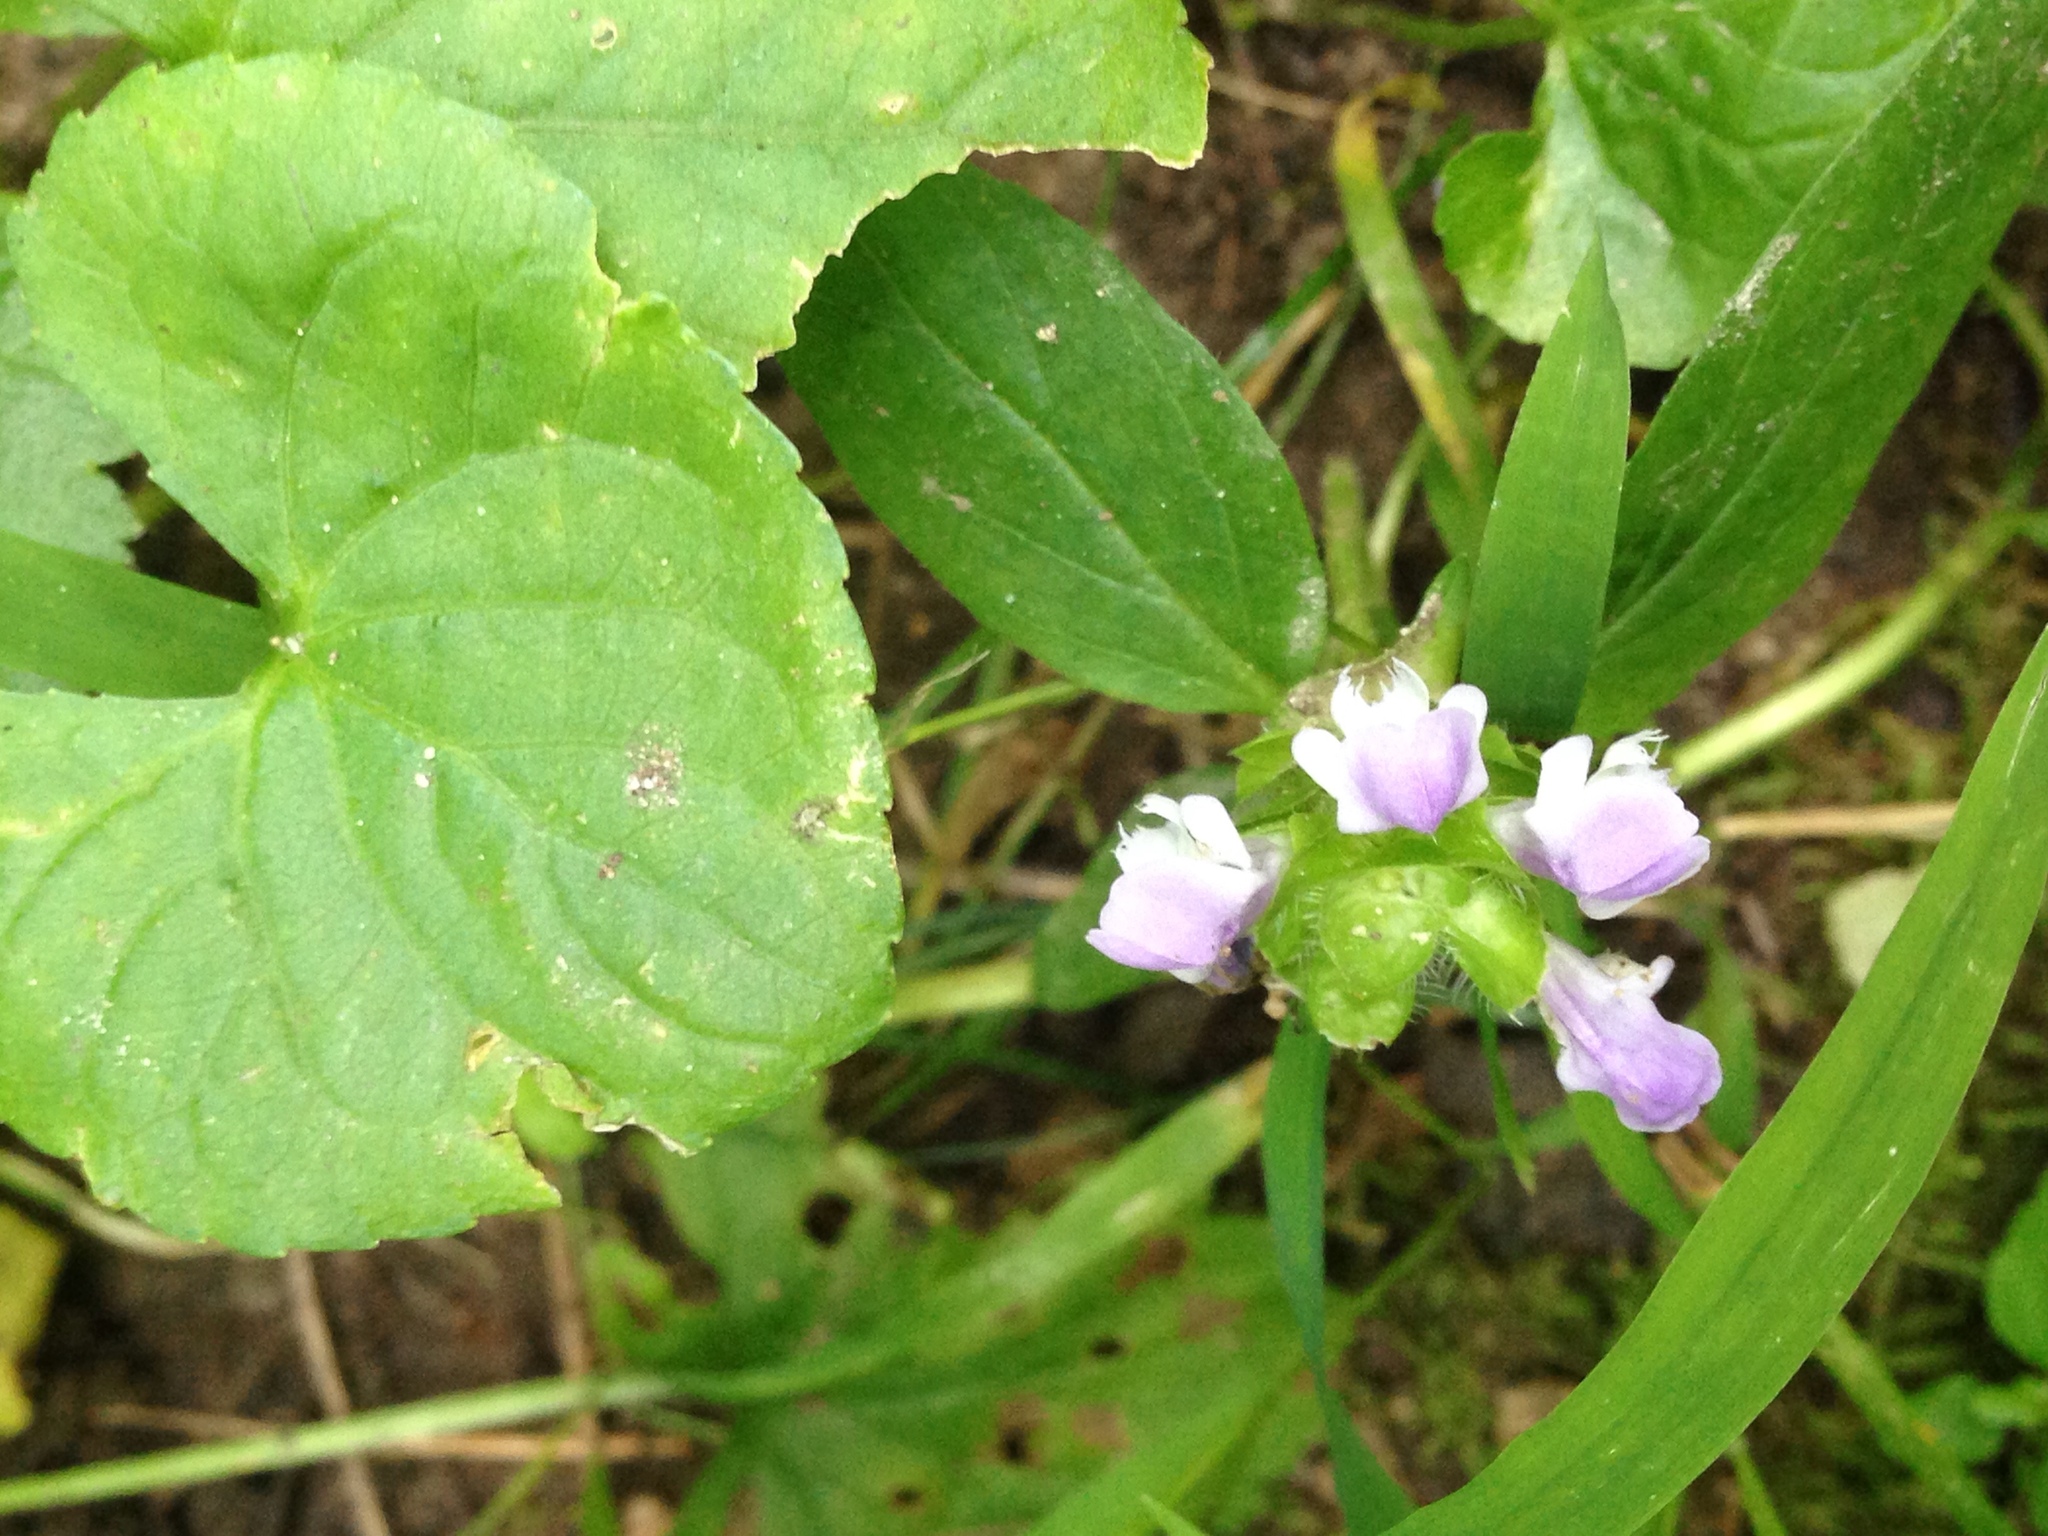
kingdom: Plantae
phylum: Tracheophyta
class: Magnoliopsida
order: Lamiales
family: Lamiaceae
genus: Prunella
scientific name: Prunella vulgaris
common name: Heal-all
